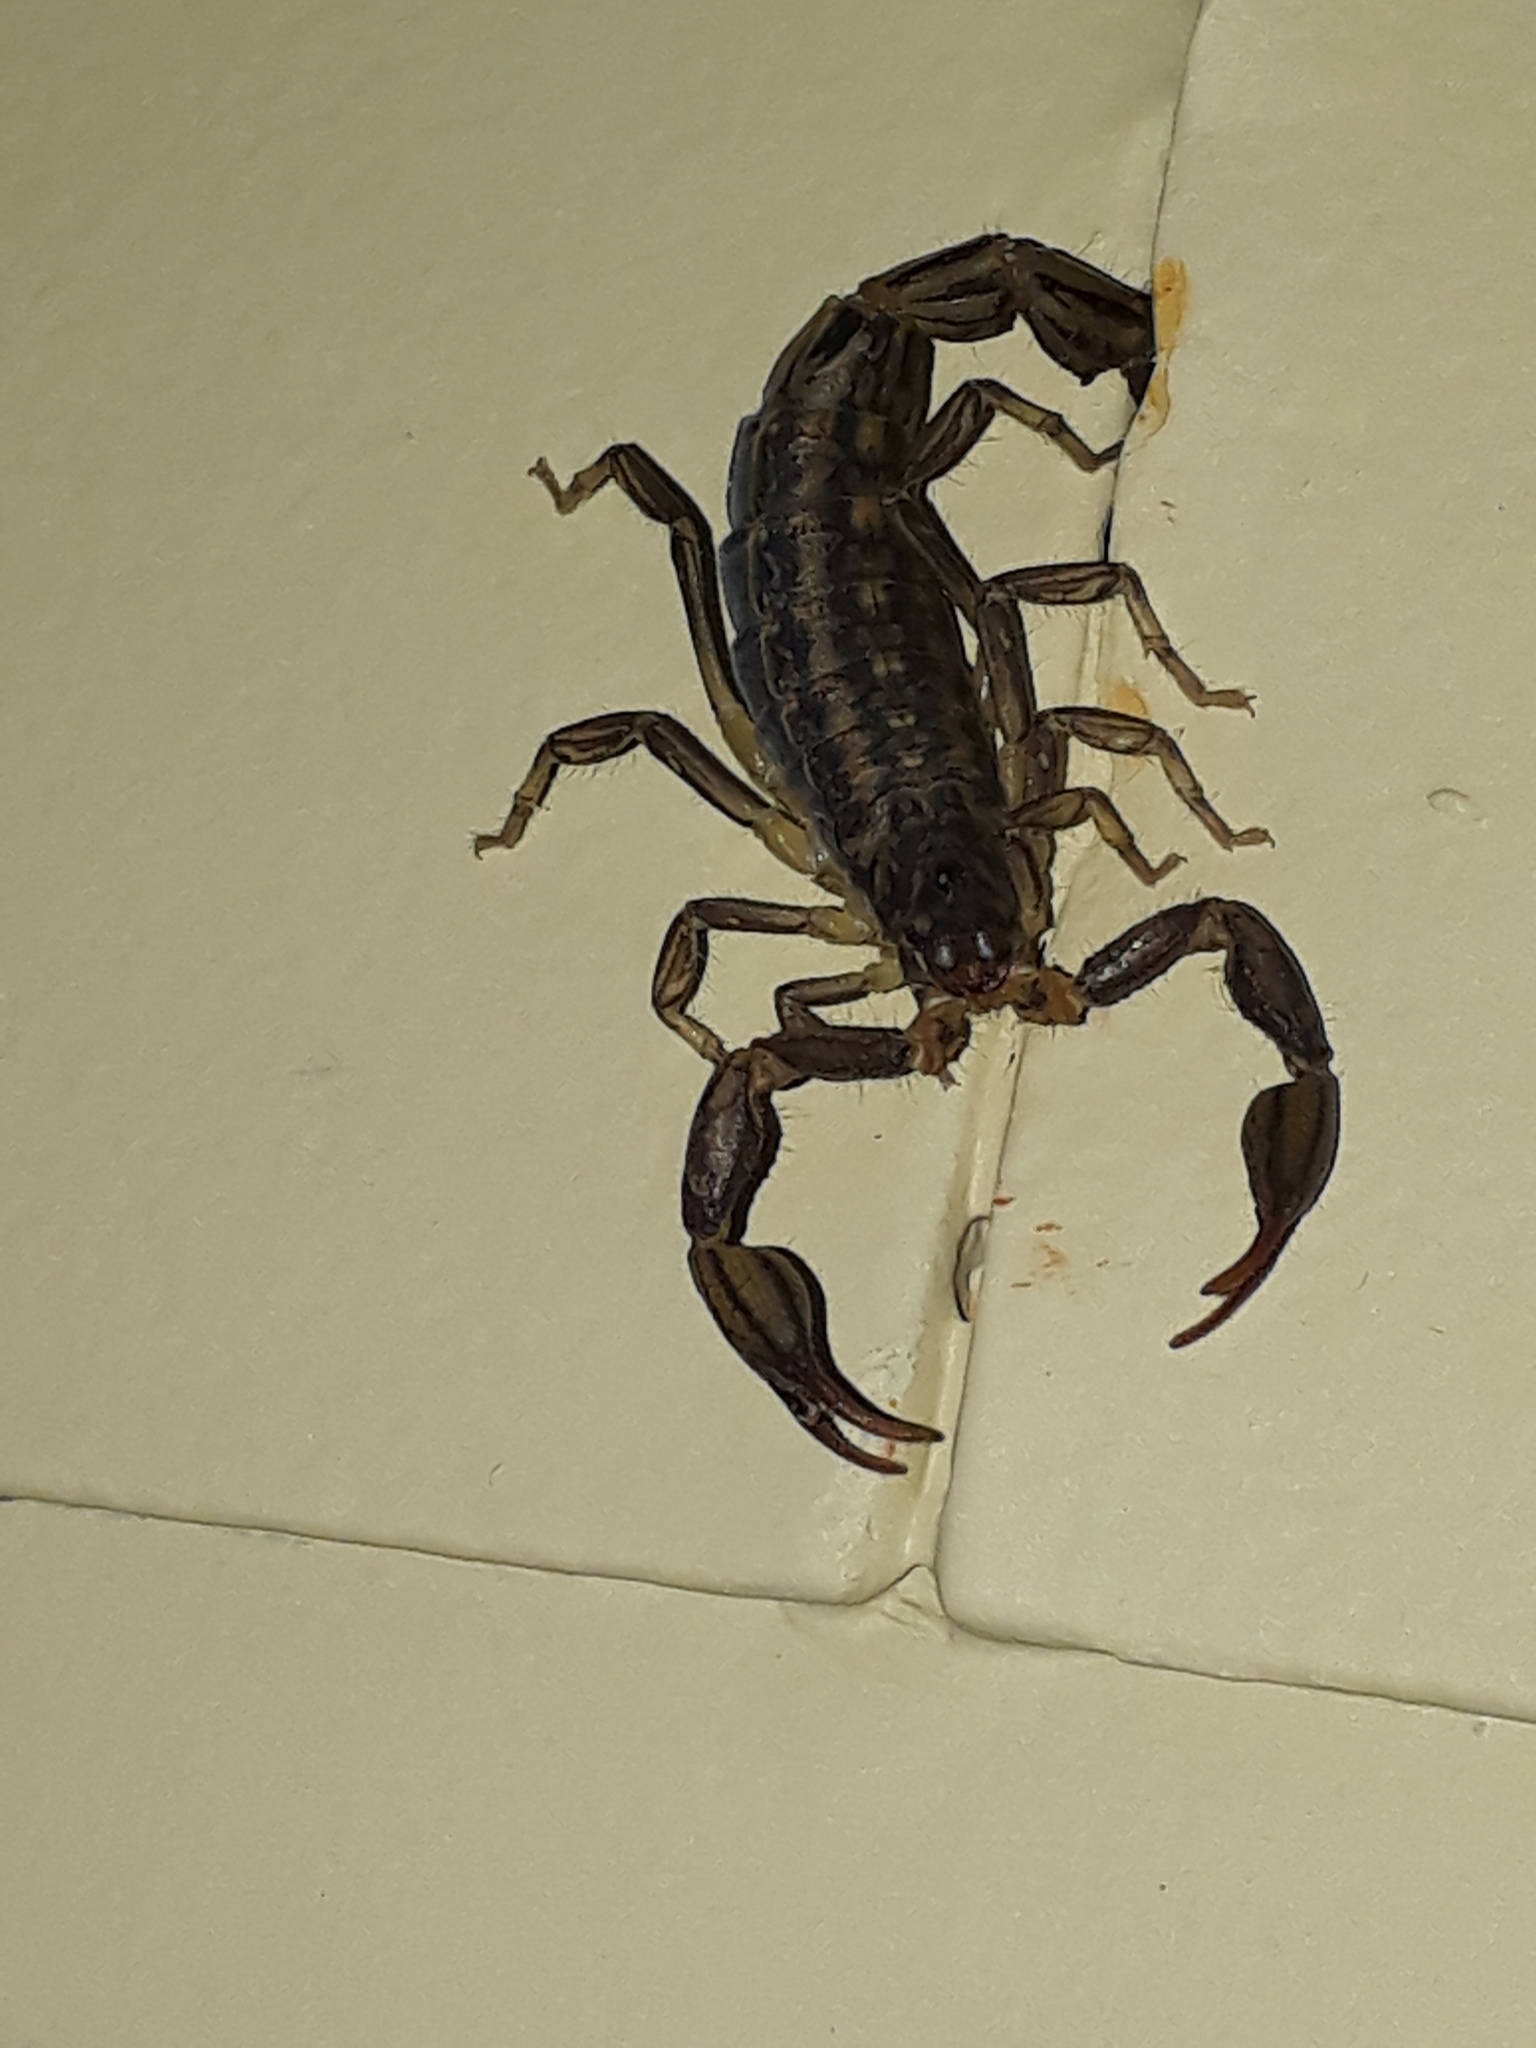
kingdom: Animalia
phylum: Arthropoda
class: Arachnida
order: Scorpiones
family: Buthidae
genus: Uroplectes
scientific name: Uroplectes lineatus
